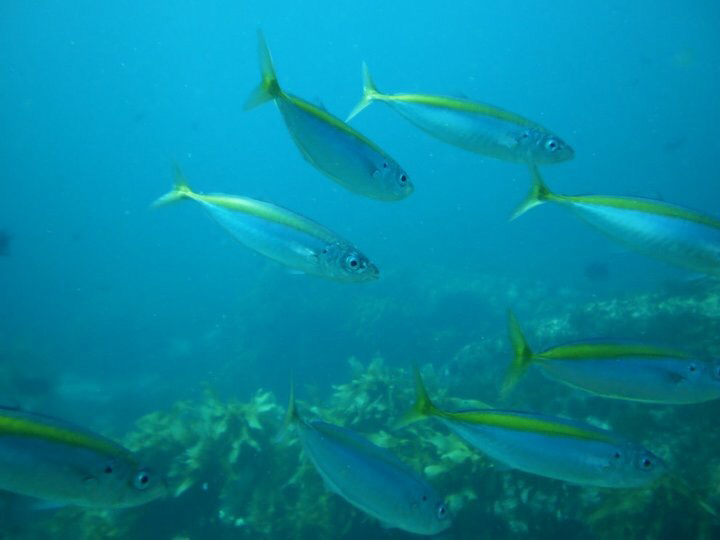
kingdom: Animalia
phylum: Chordata
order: Perciformes
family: Carangidae
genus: Decapterus
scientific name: Decapterus koheru
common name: Koheru
